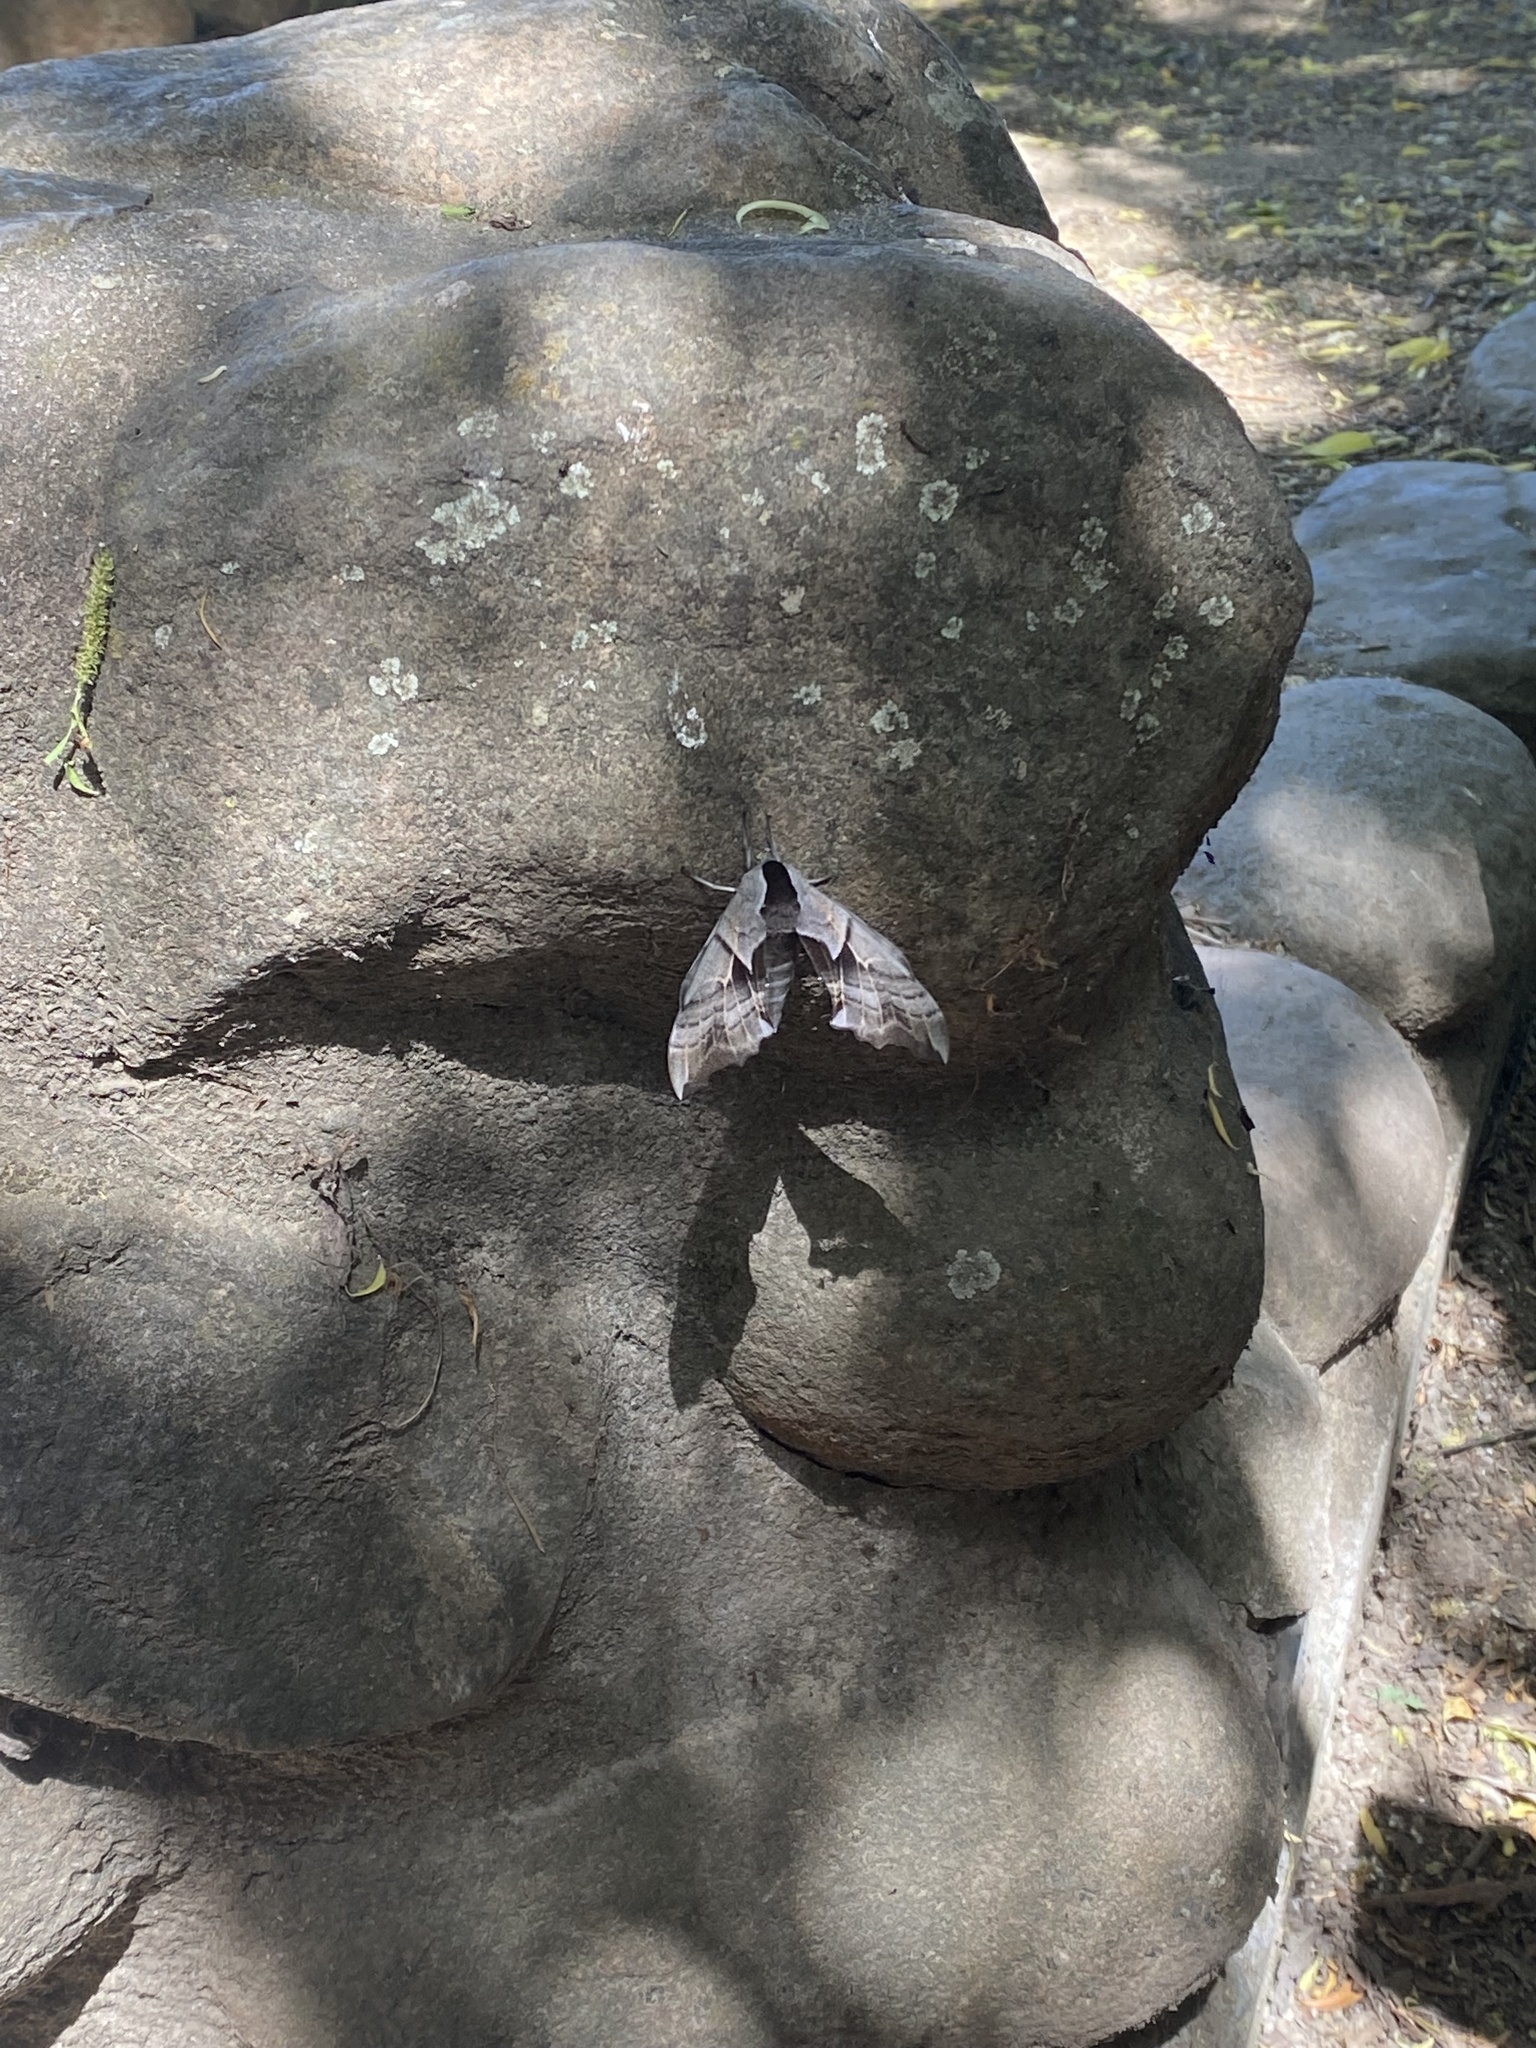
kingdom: Animalia
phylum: Arthropoda
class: Insecta
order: Lepidoptera
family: Sphingidae
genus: Smerinthus
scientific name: Smerinthus cerisyi
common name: Cerisy's sphinx moth
